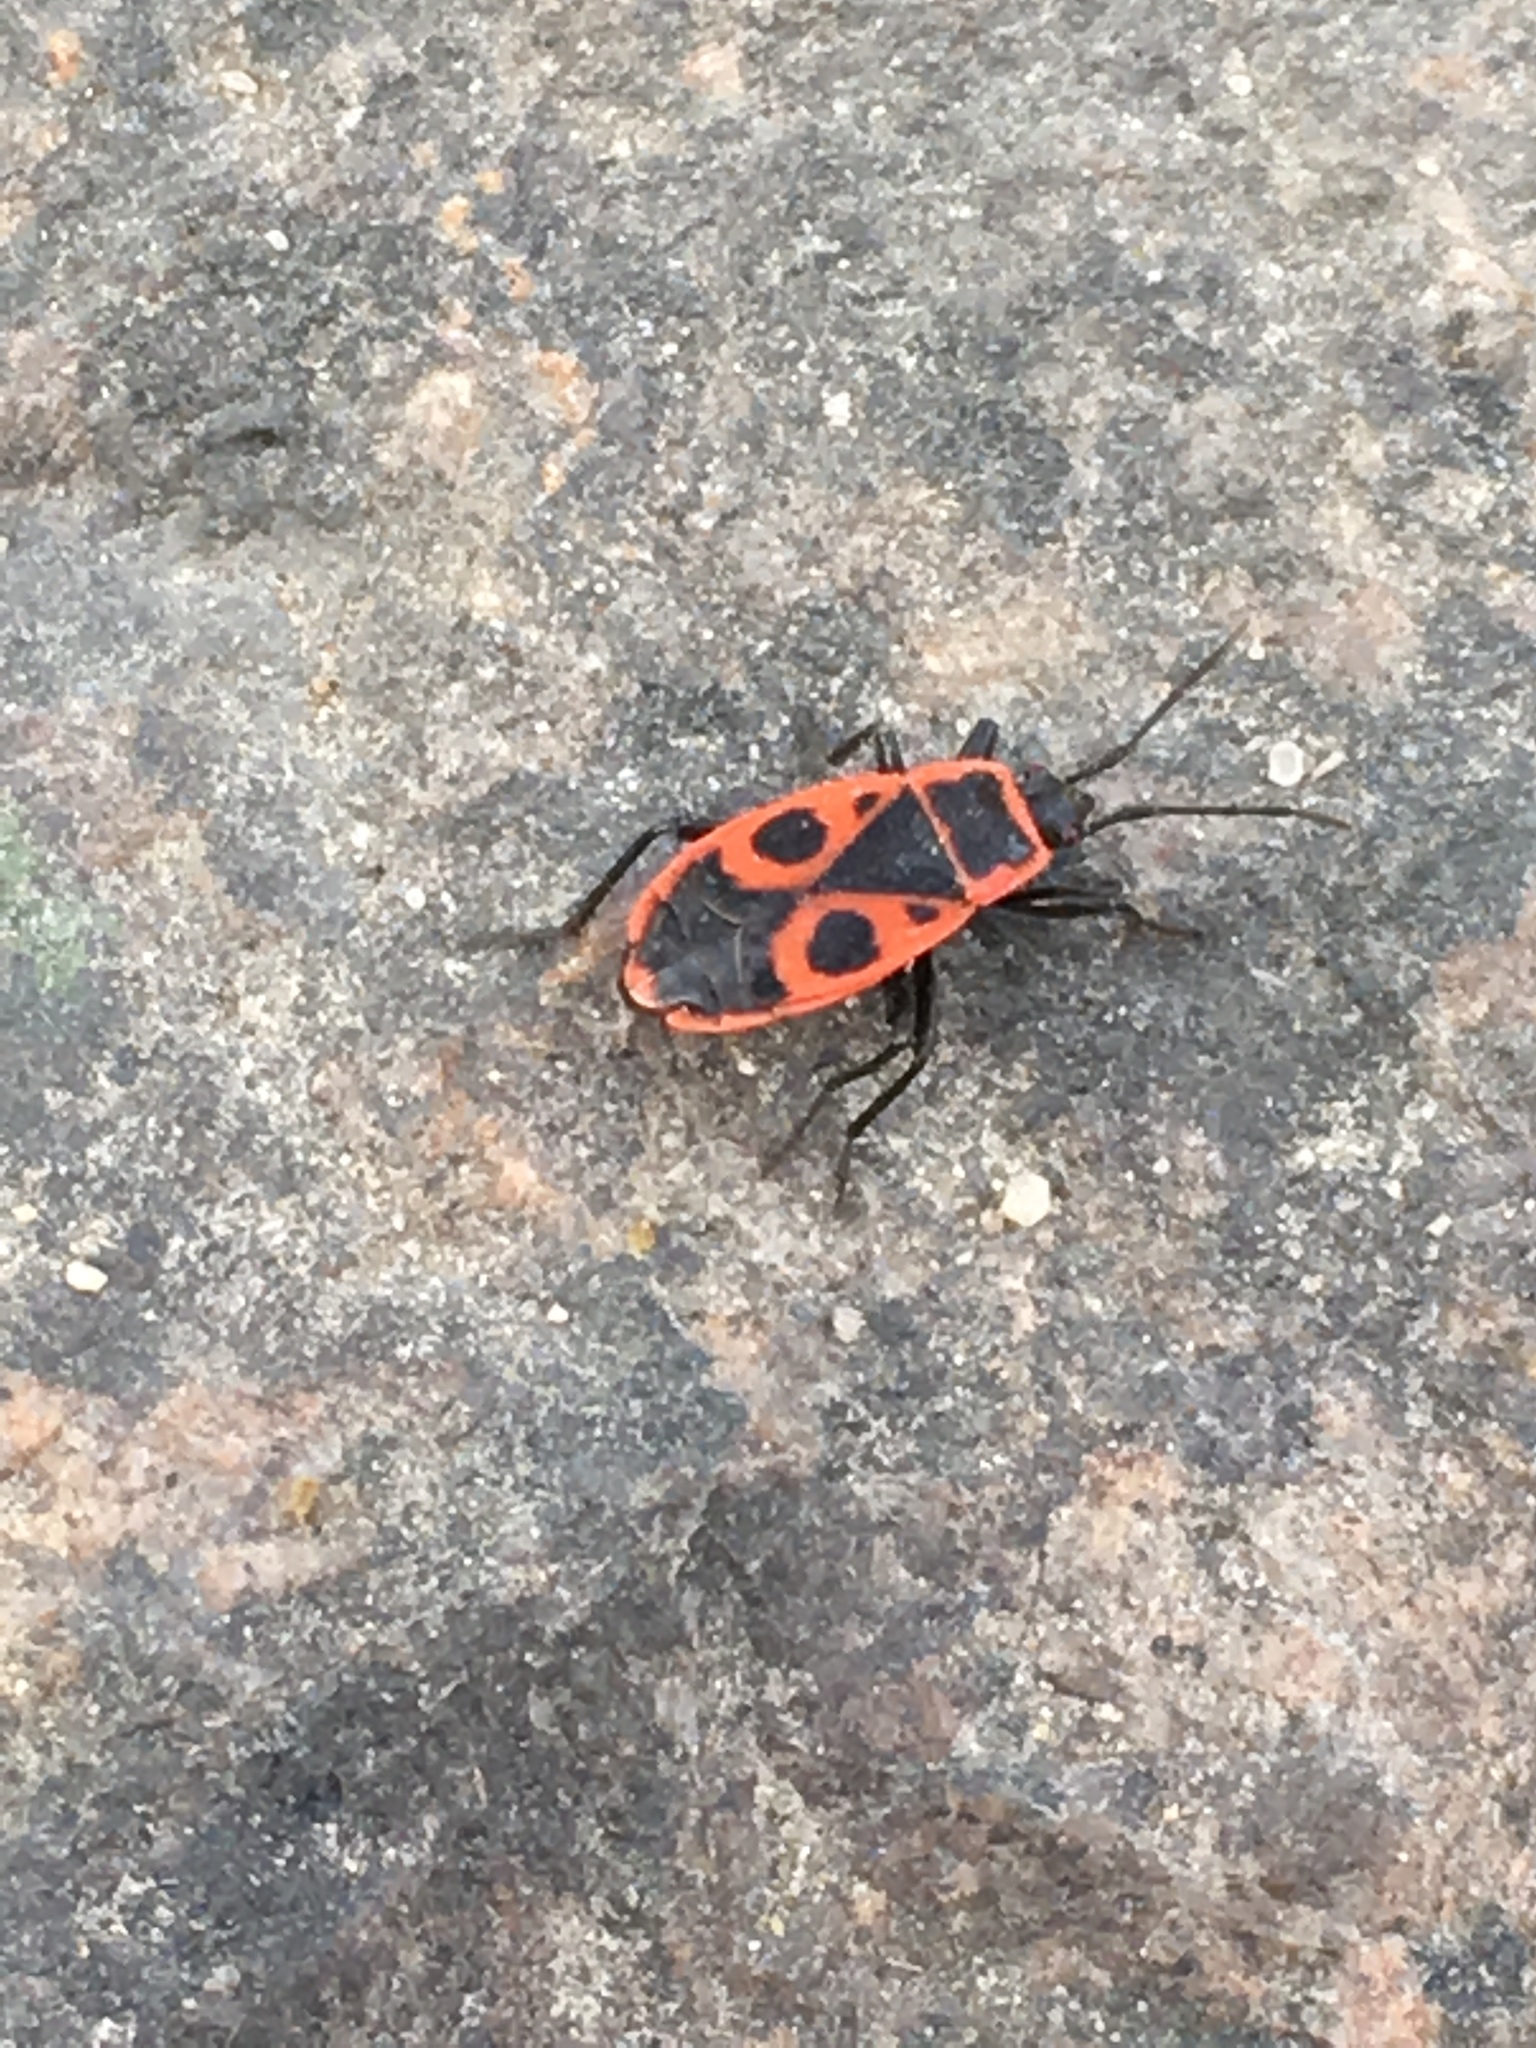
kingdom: Animalia
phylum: Arthropoda
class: Insecta
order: Hemiptera
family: Pyrrhocoridae
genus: Pyrrhocoris
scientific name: Pyrrhocoris apterus
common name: Firebug
